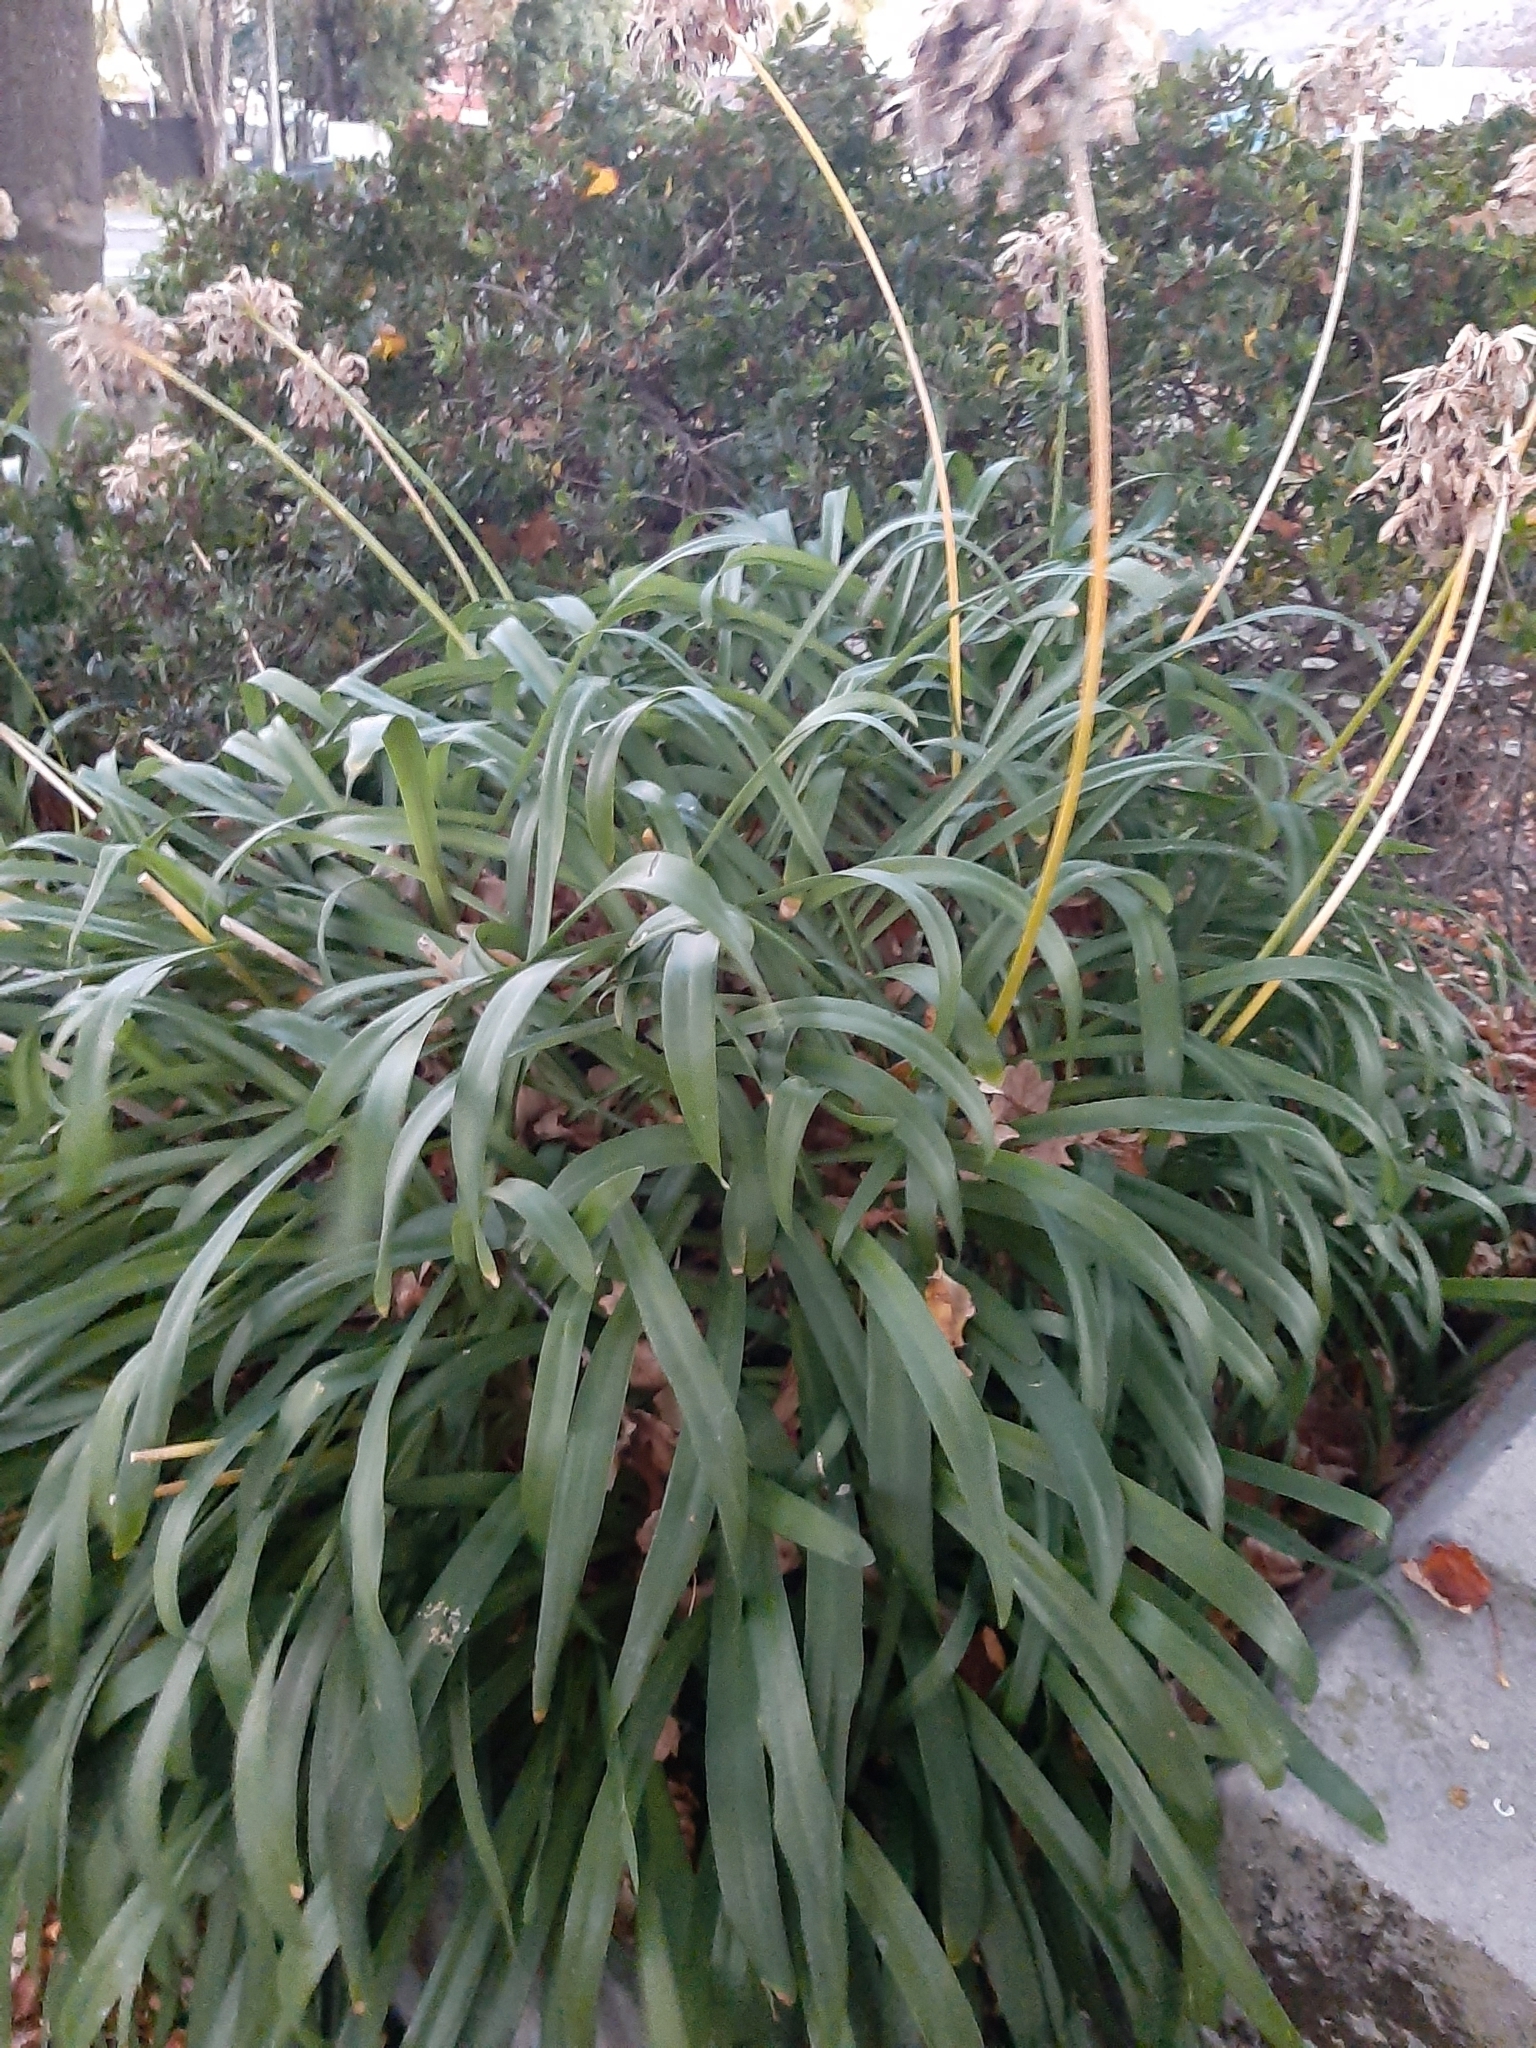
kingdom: Plantae
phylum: Tracheophyta
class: Liliopsida
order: Asparagales
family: Amaryllidaceae
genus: Agapanthus
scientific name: Agapanthus praecox
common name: African-lily
